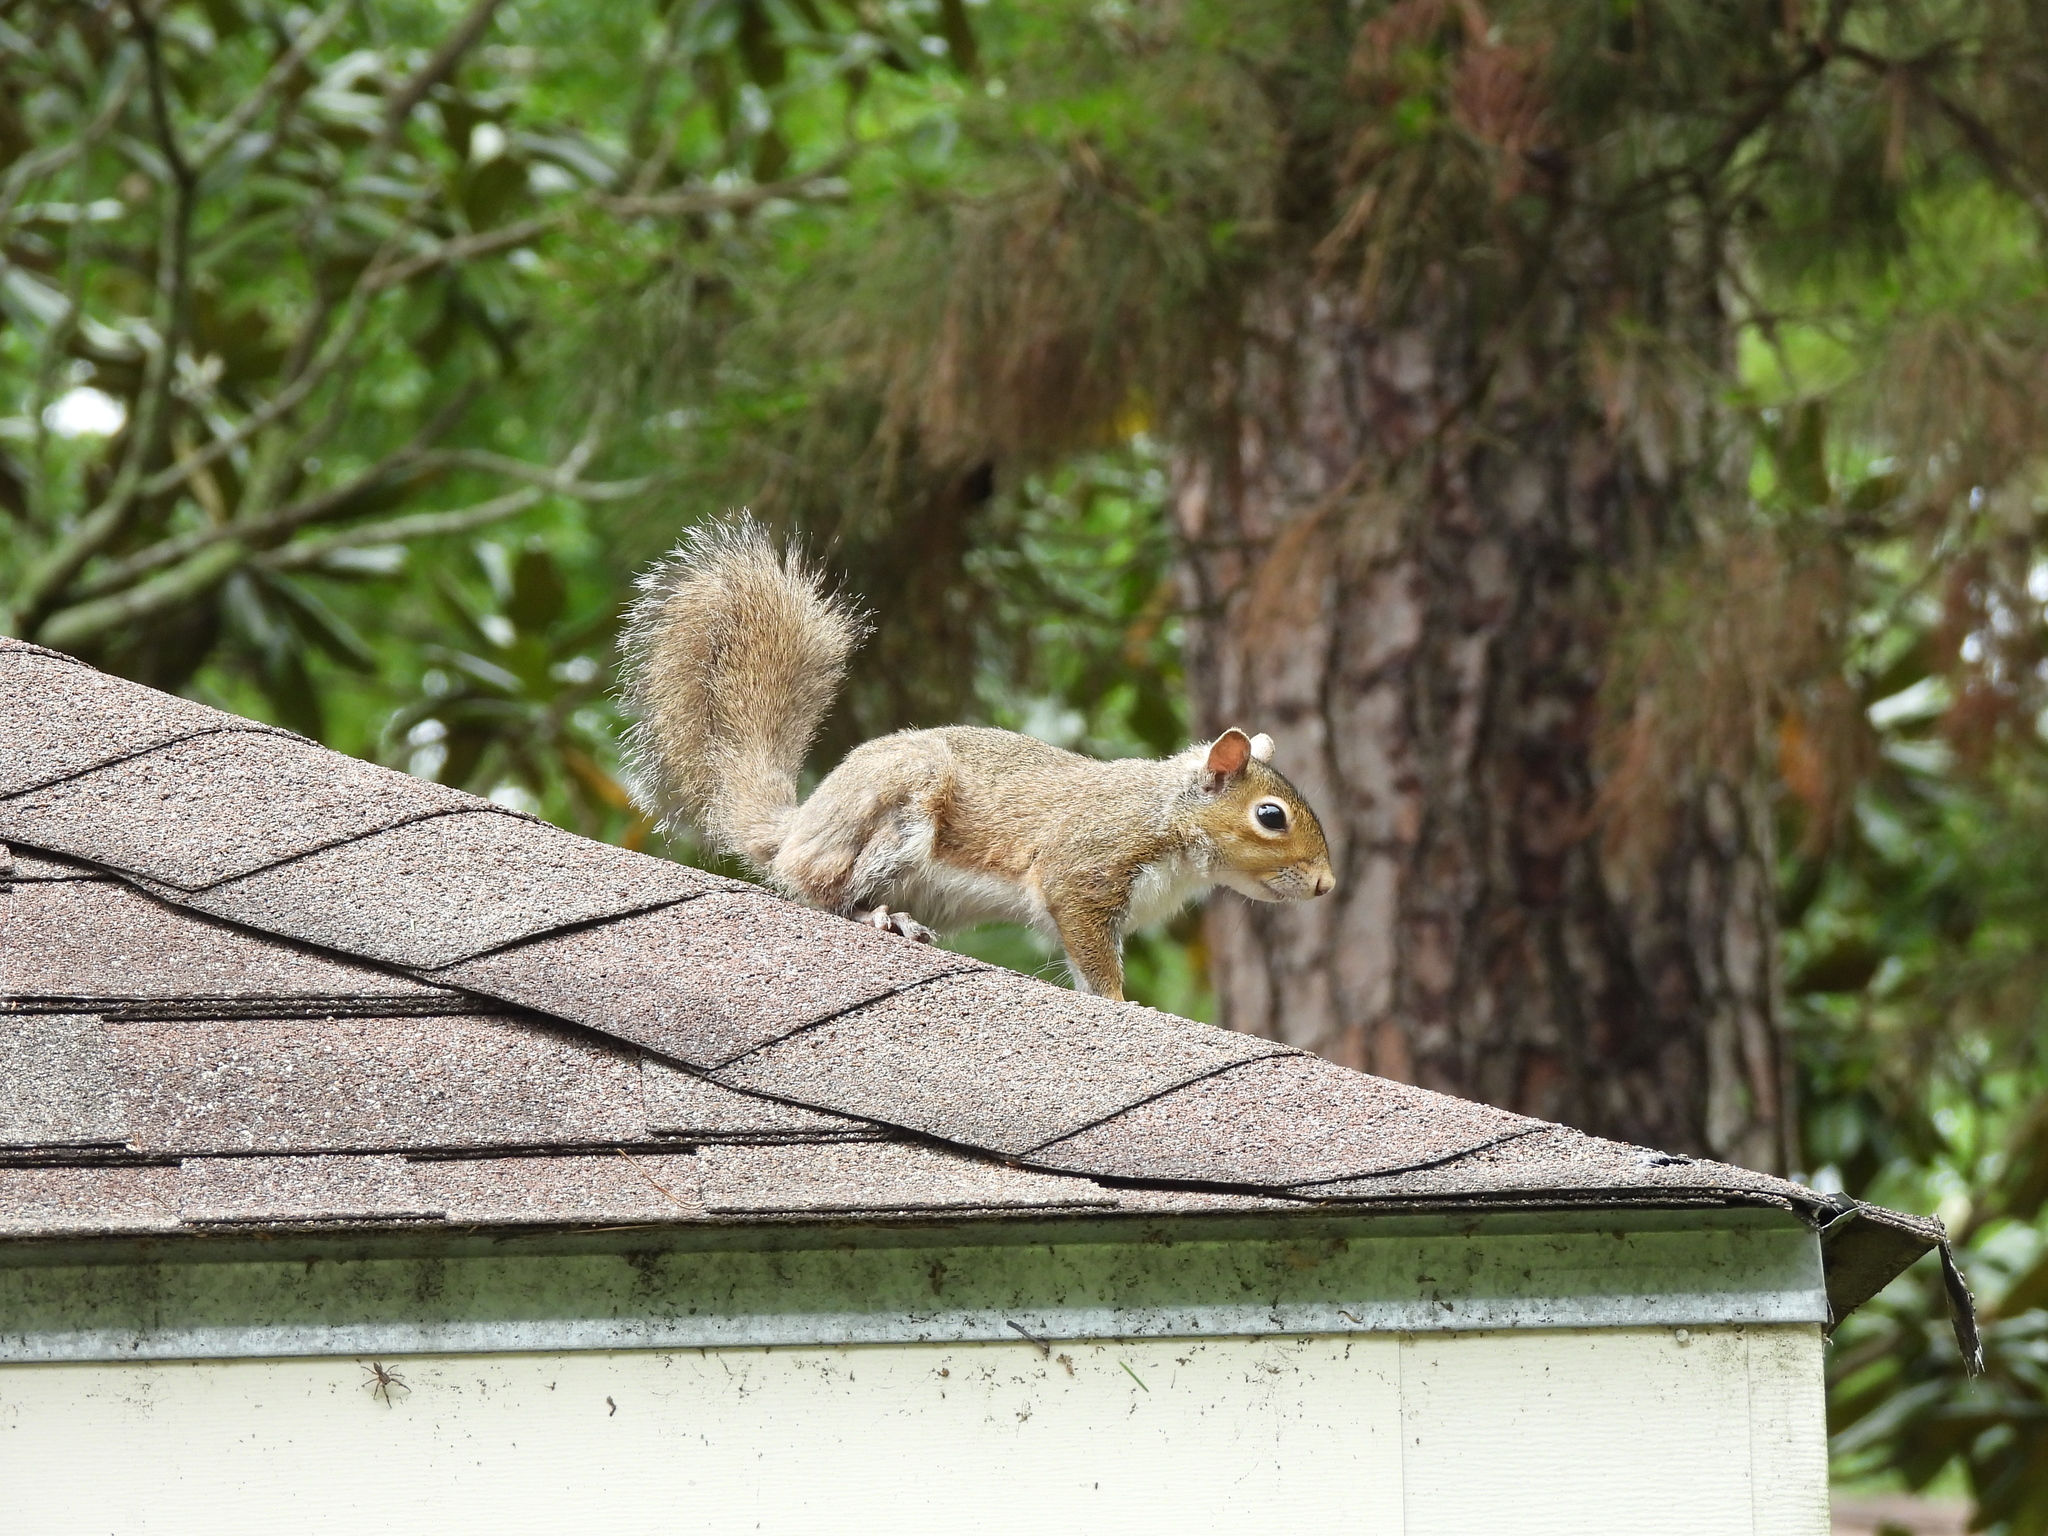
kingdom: Animalia
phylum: Chordata
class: Mammalia
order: Rodentia
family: Sciuridae
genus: Sciurus
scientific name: Sciurus carolinensis
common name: Eastern gray squirrel
